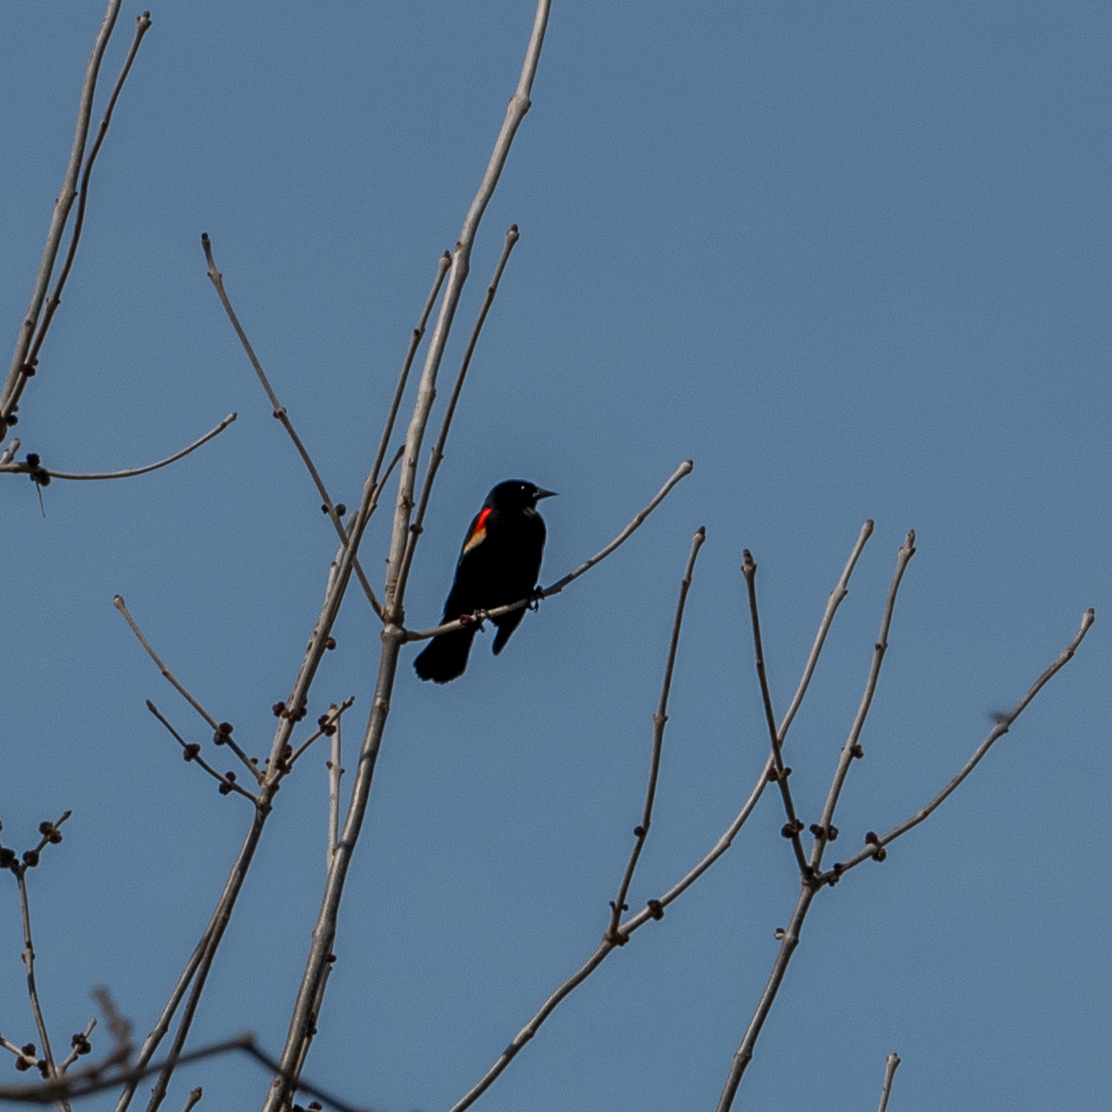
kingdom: Animalia
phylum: Chordata
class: Aves
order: Passeriformes
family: Icteridae
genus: Agelaius
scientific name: Agelaius phoeniceus
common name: Red-winged blackbird
